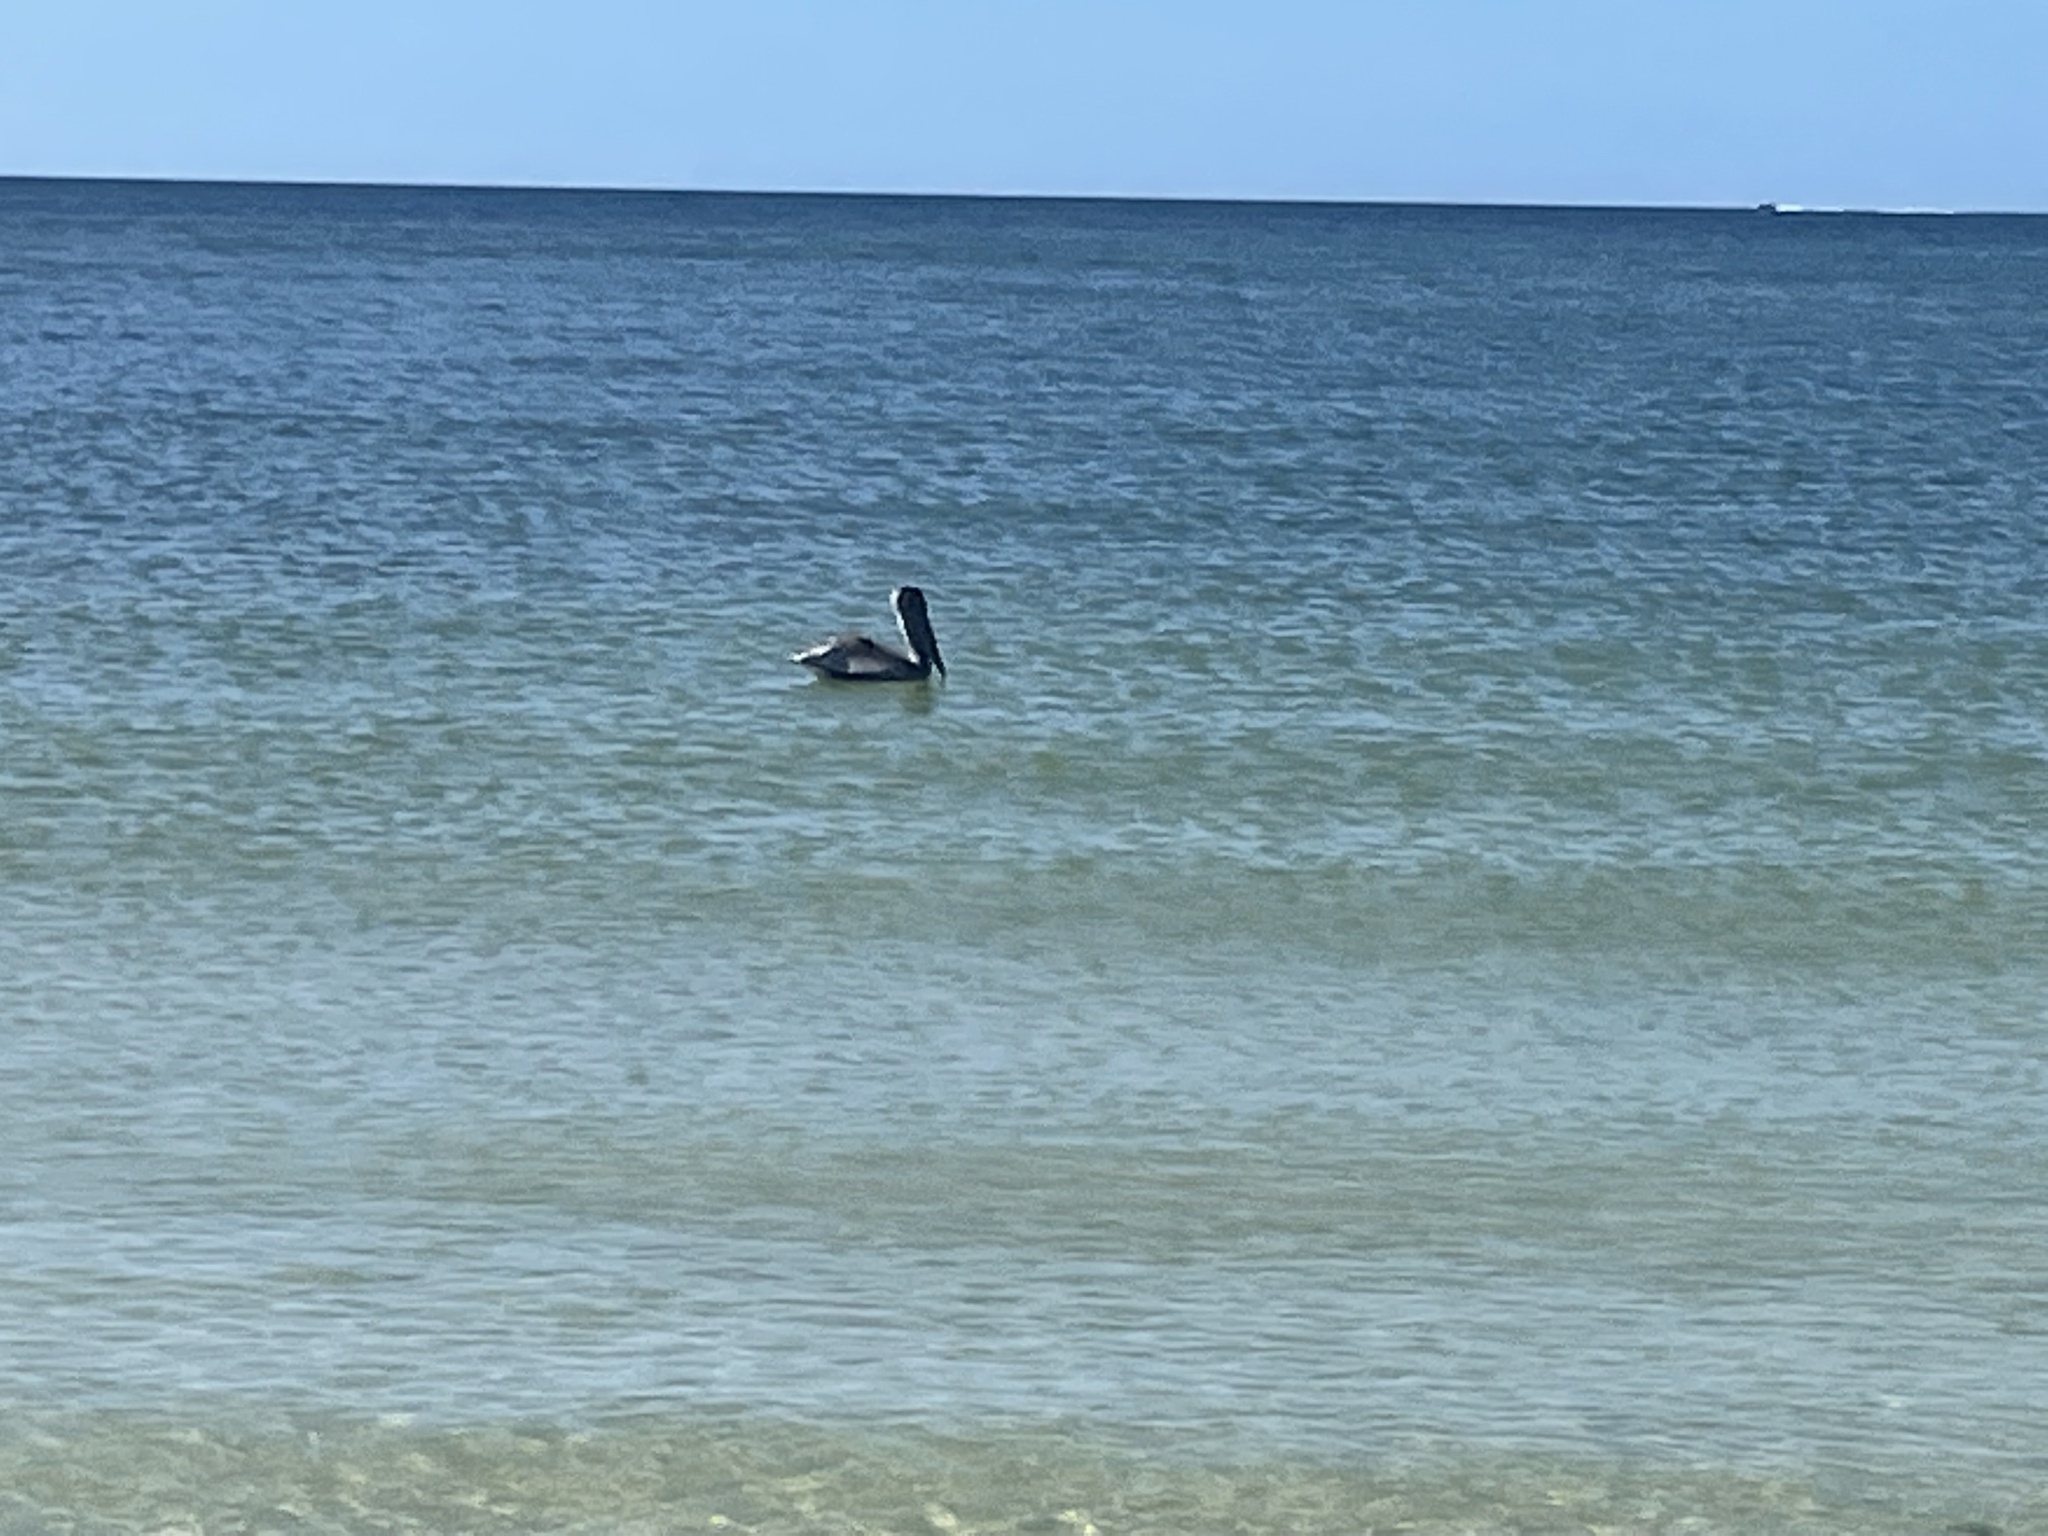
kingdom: Animalia
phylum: Chordata
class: Aves
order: Pelecaniformes
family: Pelecanidae
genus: Pelecanus
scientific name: Pelecanus occidentalis
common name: Brown pelican
